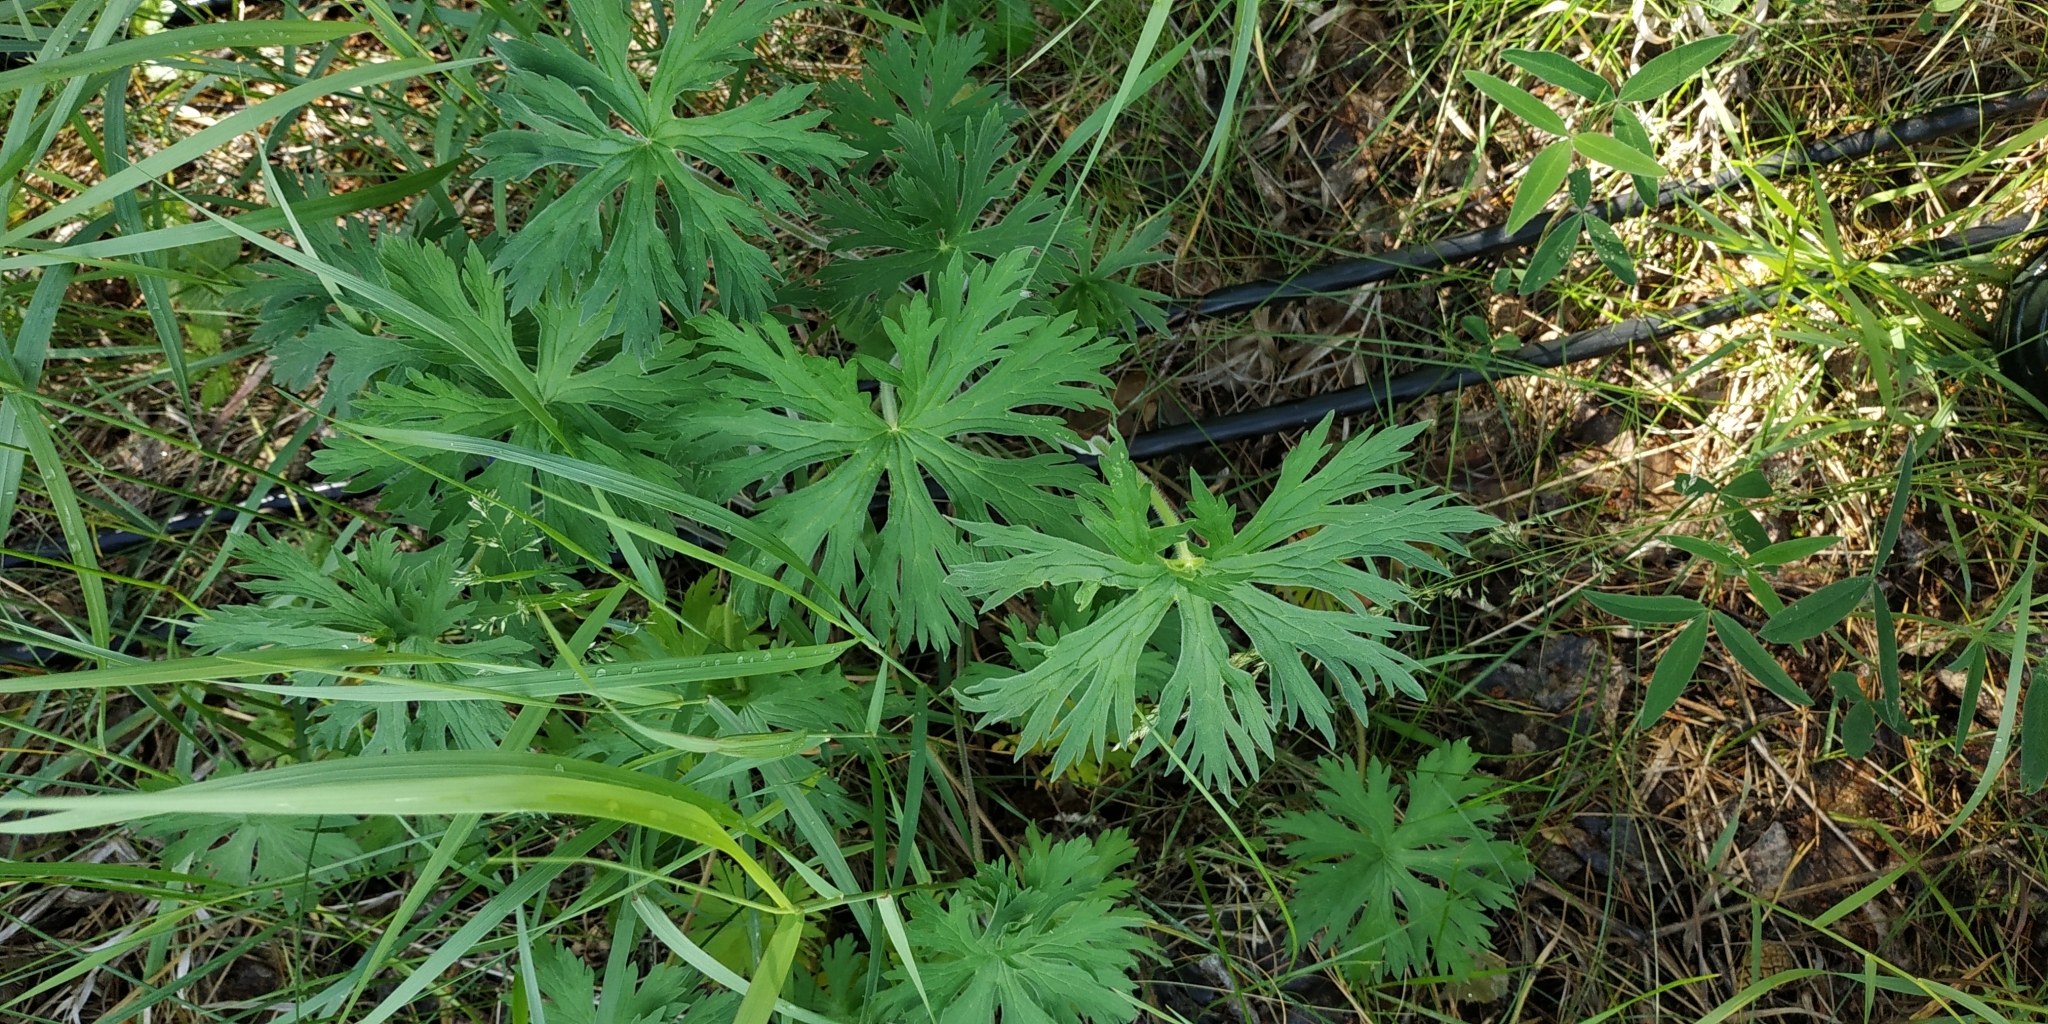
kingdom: Plantae
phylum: Tracheophyta
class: Magnoliopsida
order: Geraniales
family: Geraniaceae
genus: Geranium
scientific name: Geranium pratense
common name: Meadow crane's-bill
